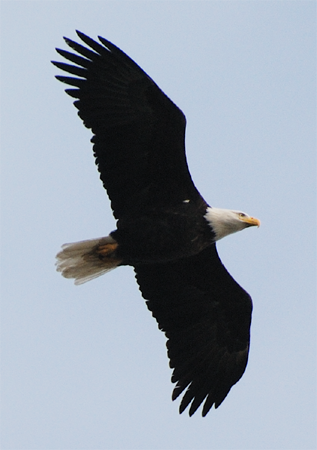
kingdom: Animalia
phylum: Chordata
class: Aves
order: Accipitriformes
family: Accipitridae
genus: Haliaeetus
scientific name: Haliaeetus leucocephalus
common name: Bald eagle
